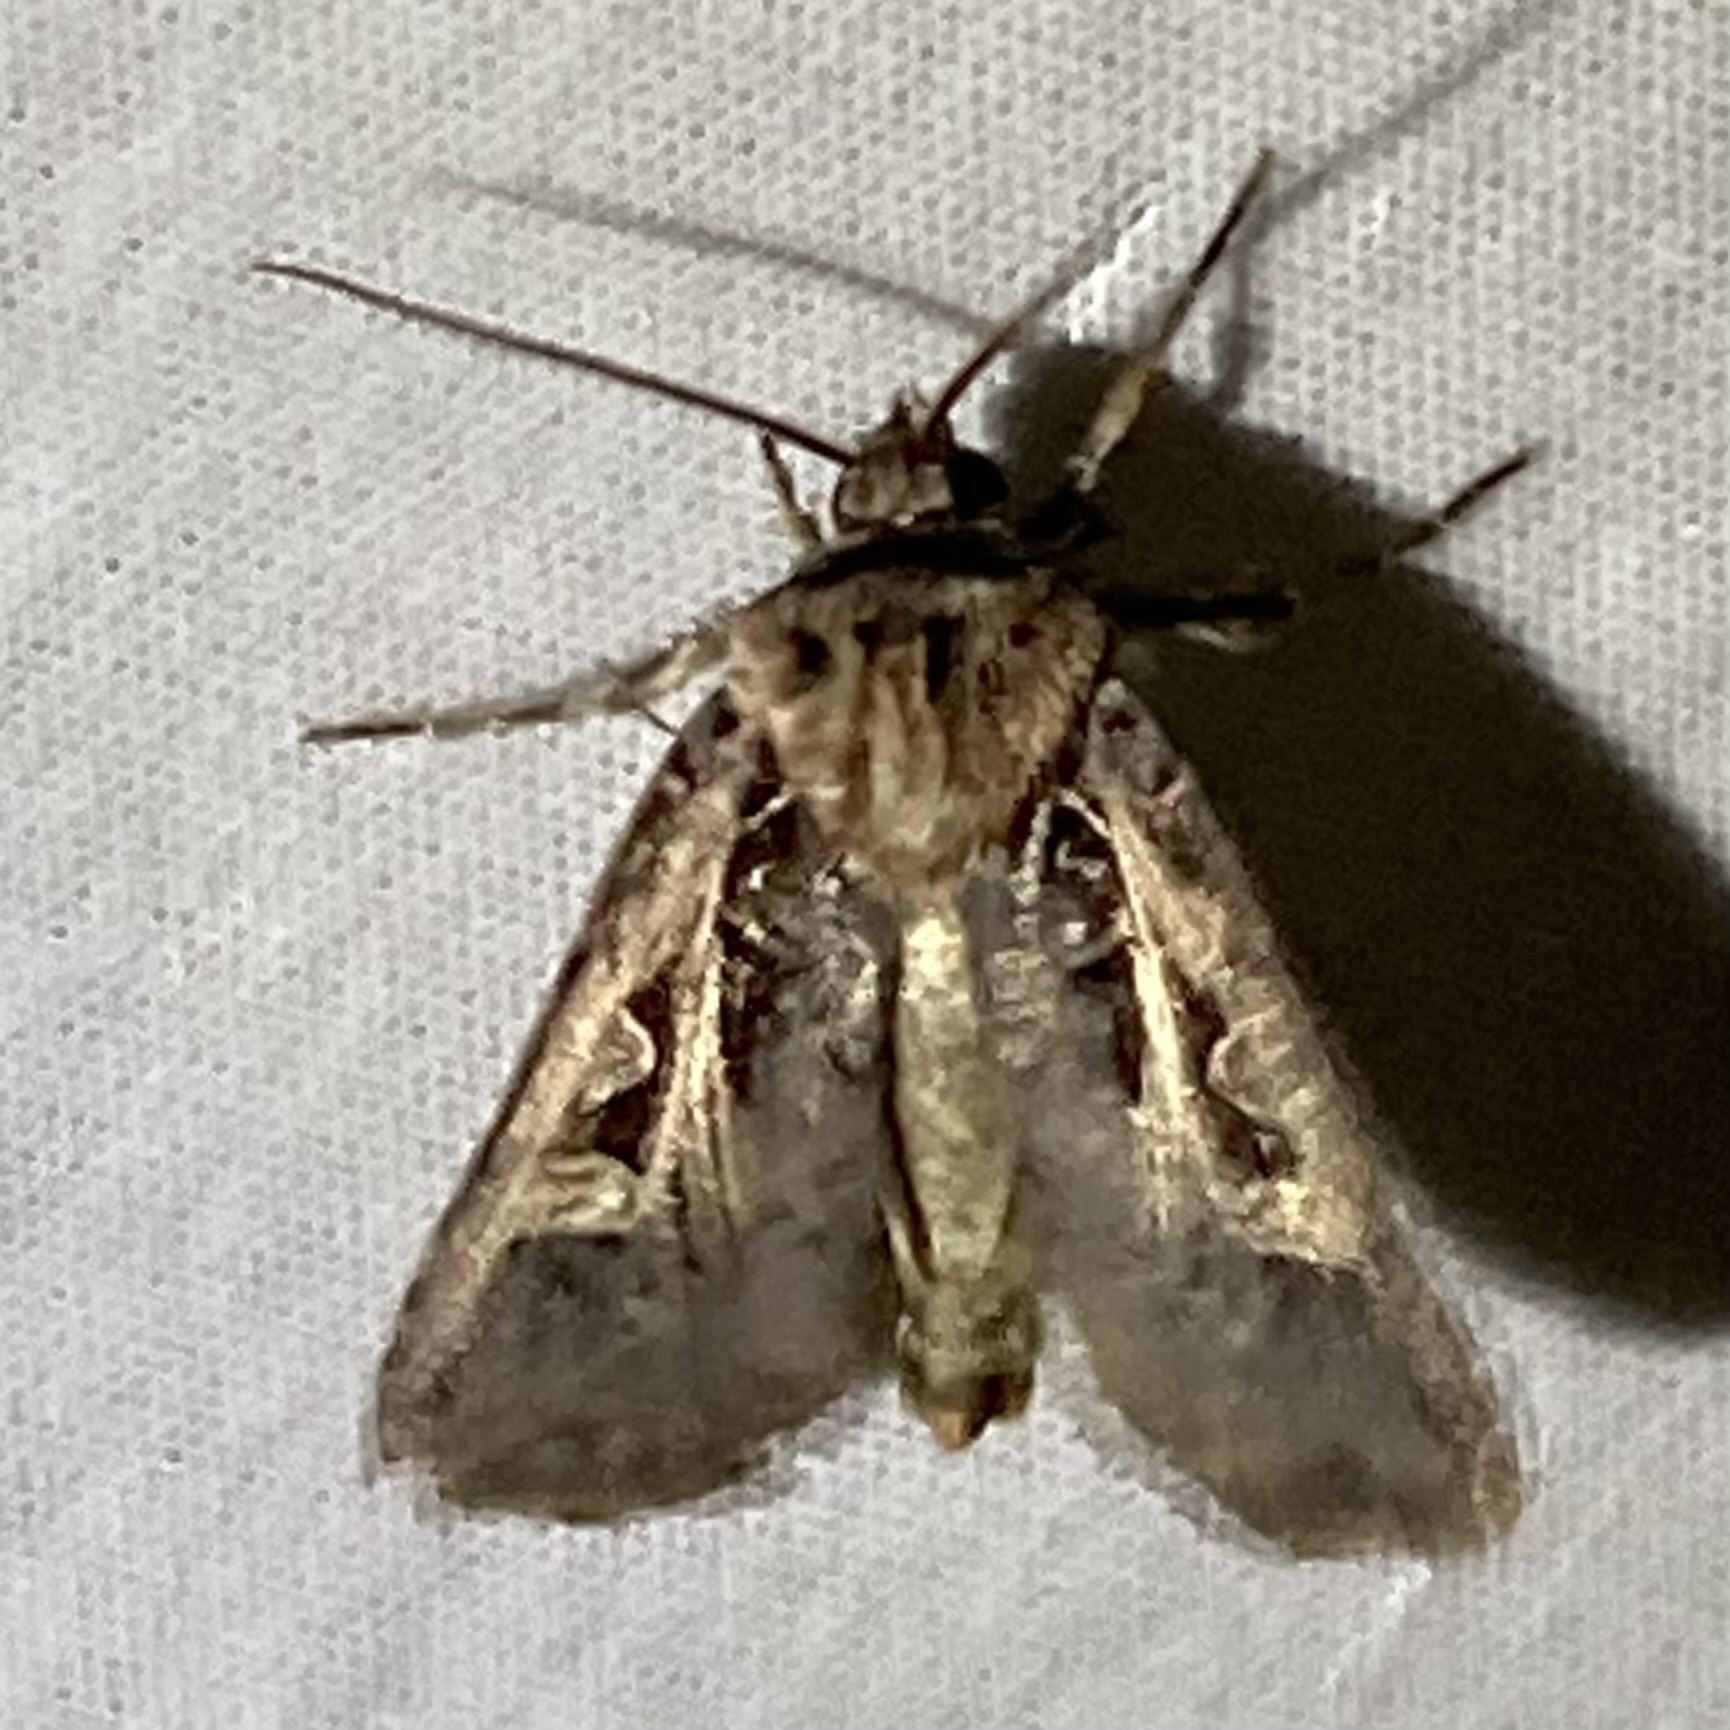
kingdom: Animalia
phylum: Arthropoda
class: Insecta
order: Lepidoptera
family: Noctuidae
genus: Feltia
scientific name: Feltia herilis
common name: Master's dart
